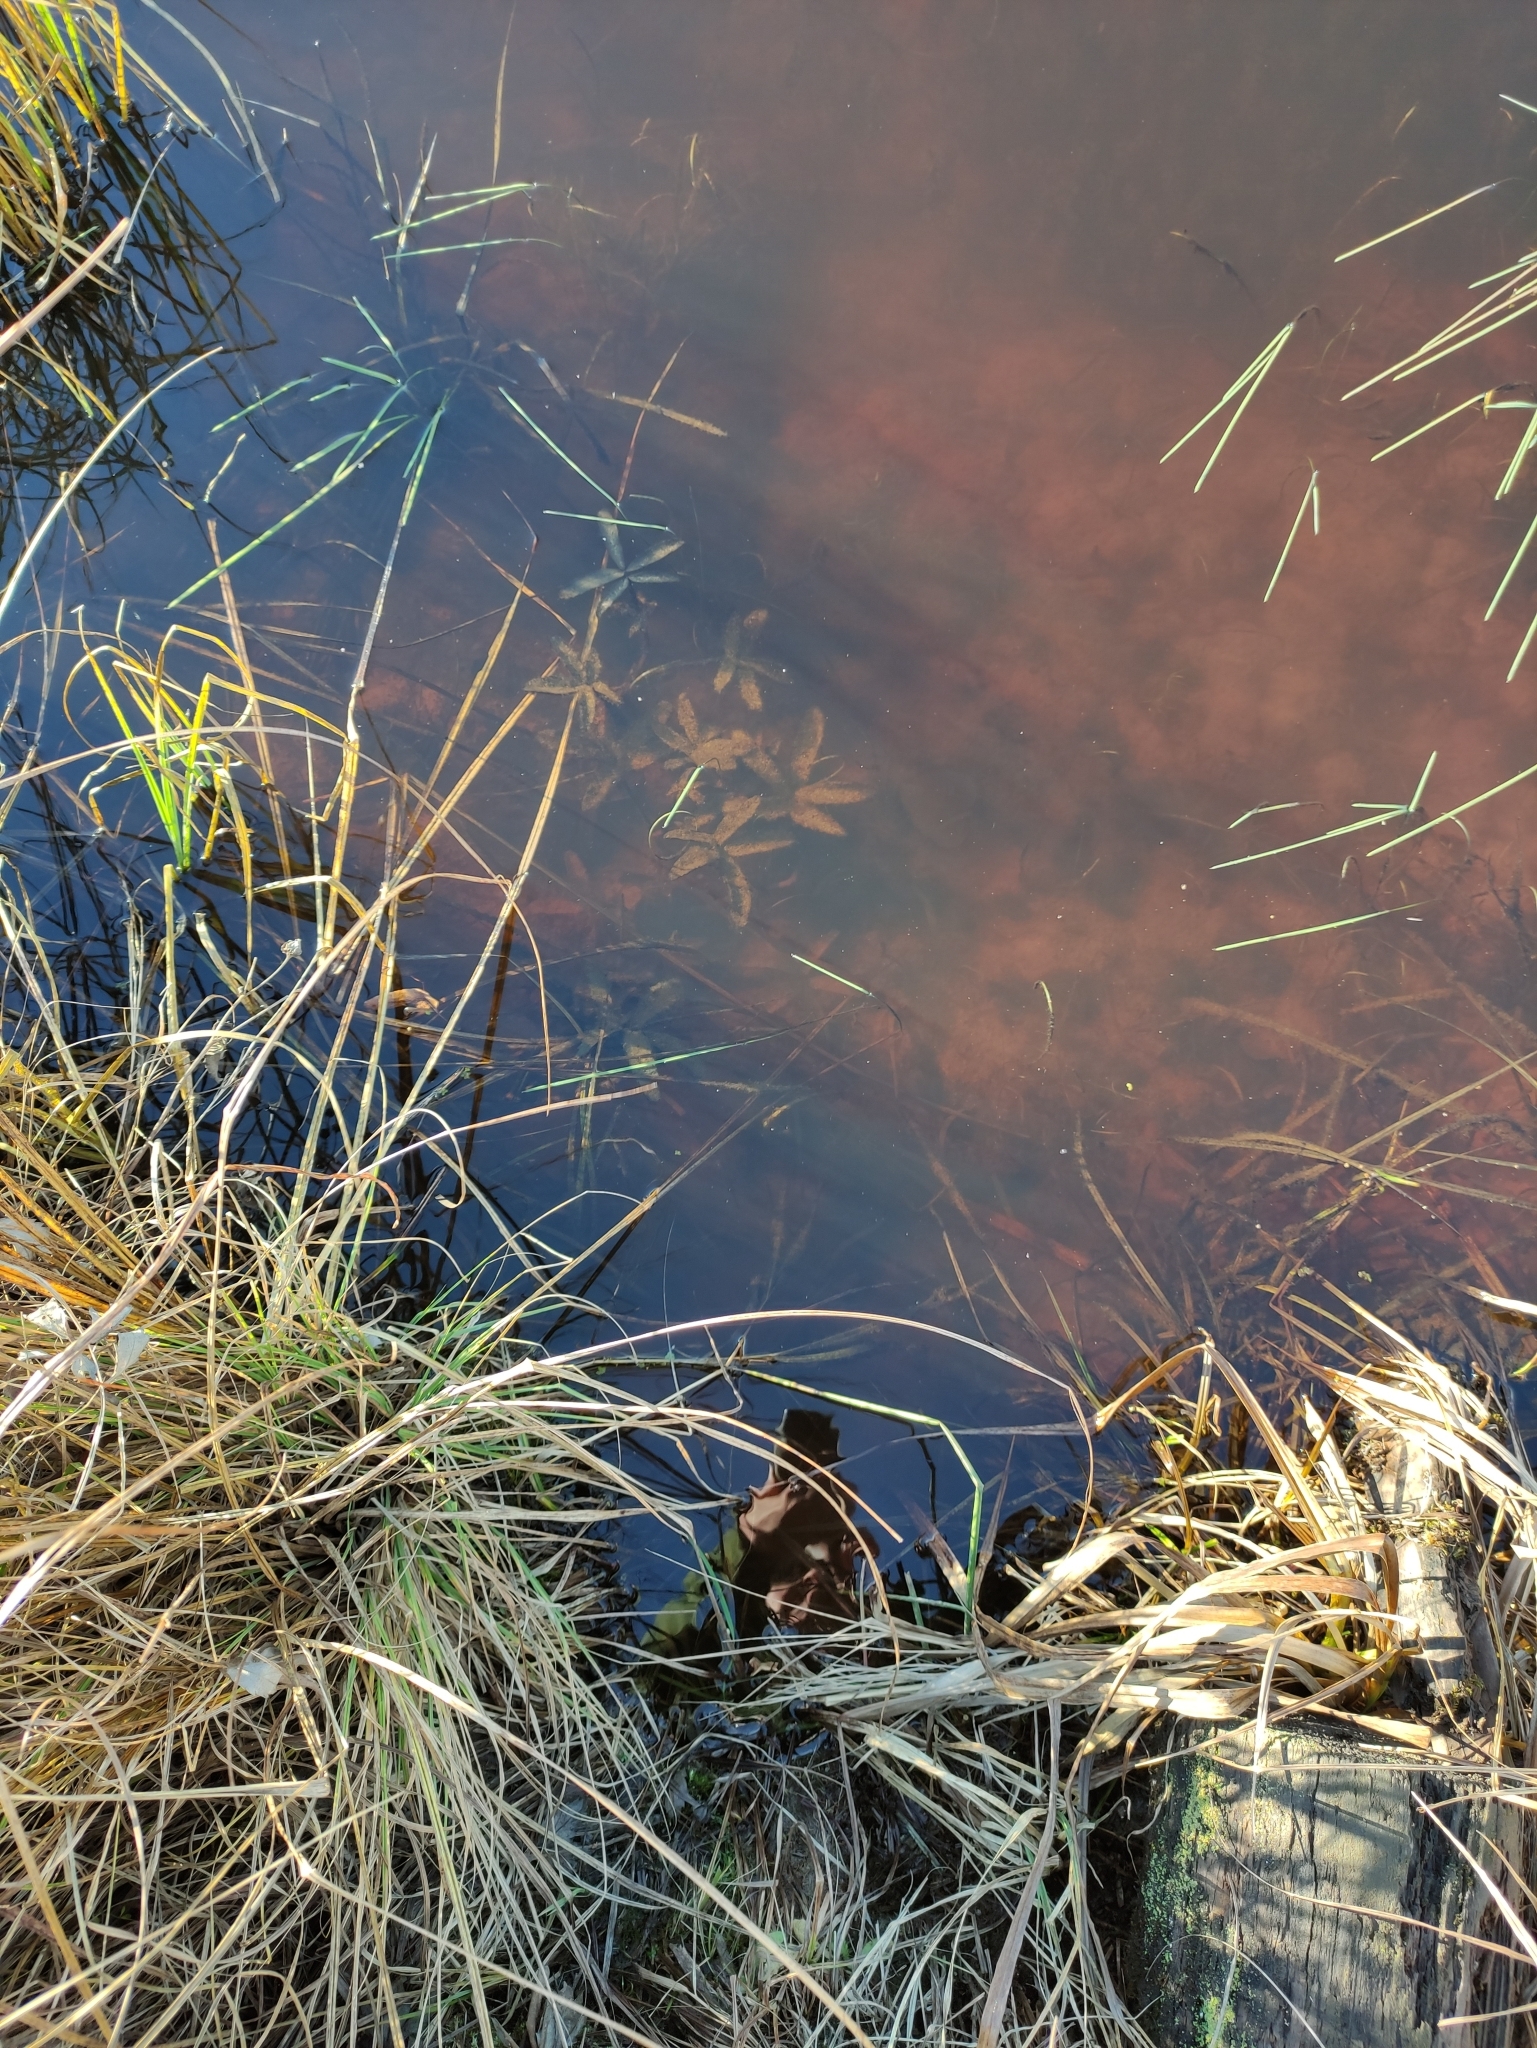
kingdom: Plantae
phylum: Tracheophyta
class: Magnoliopsida
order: Rosales
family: Rosaceae
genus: Comarum
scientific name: Comarum palustre
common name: Marsh cinquefoil
